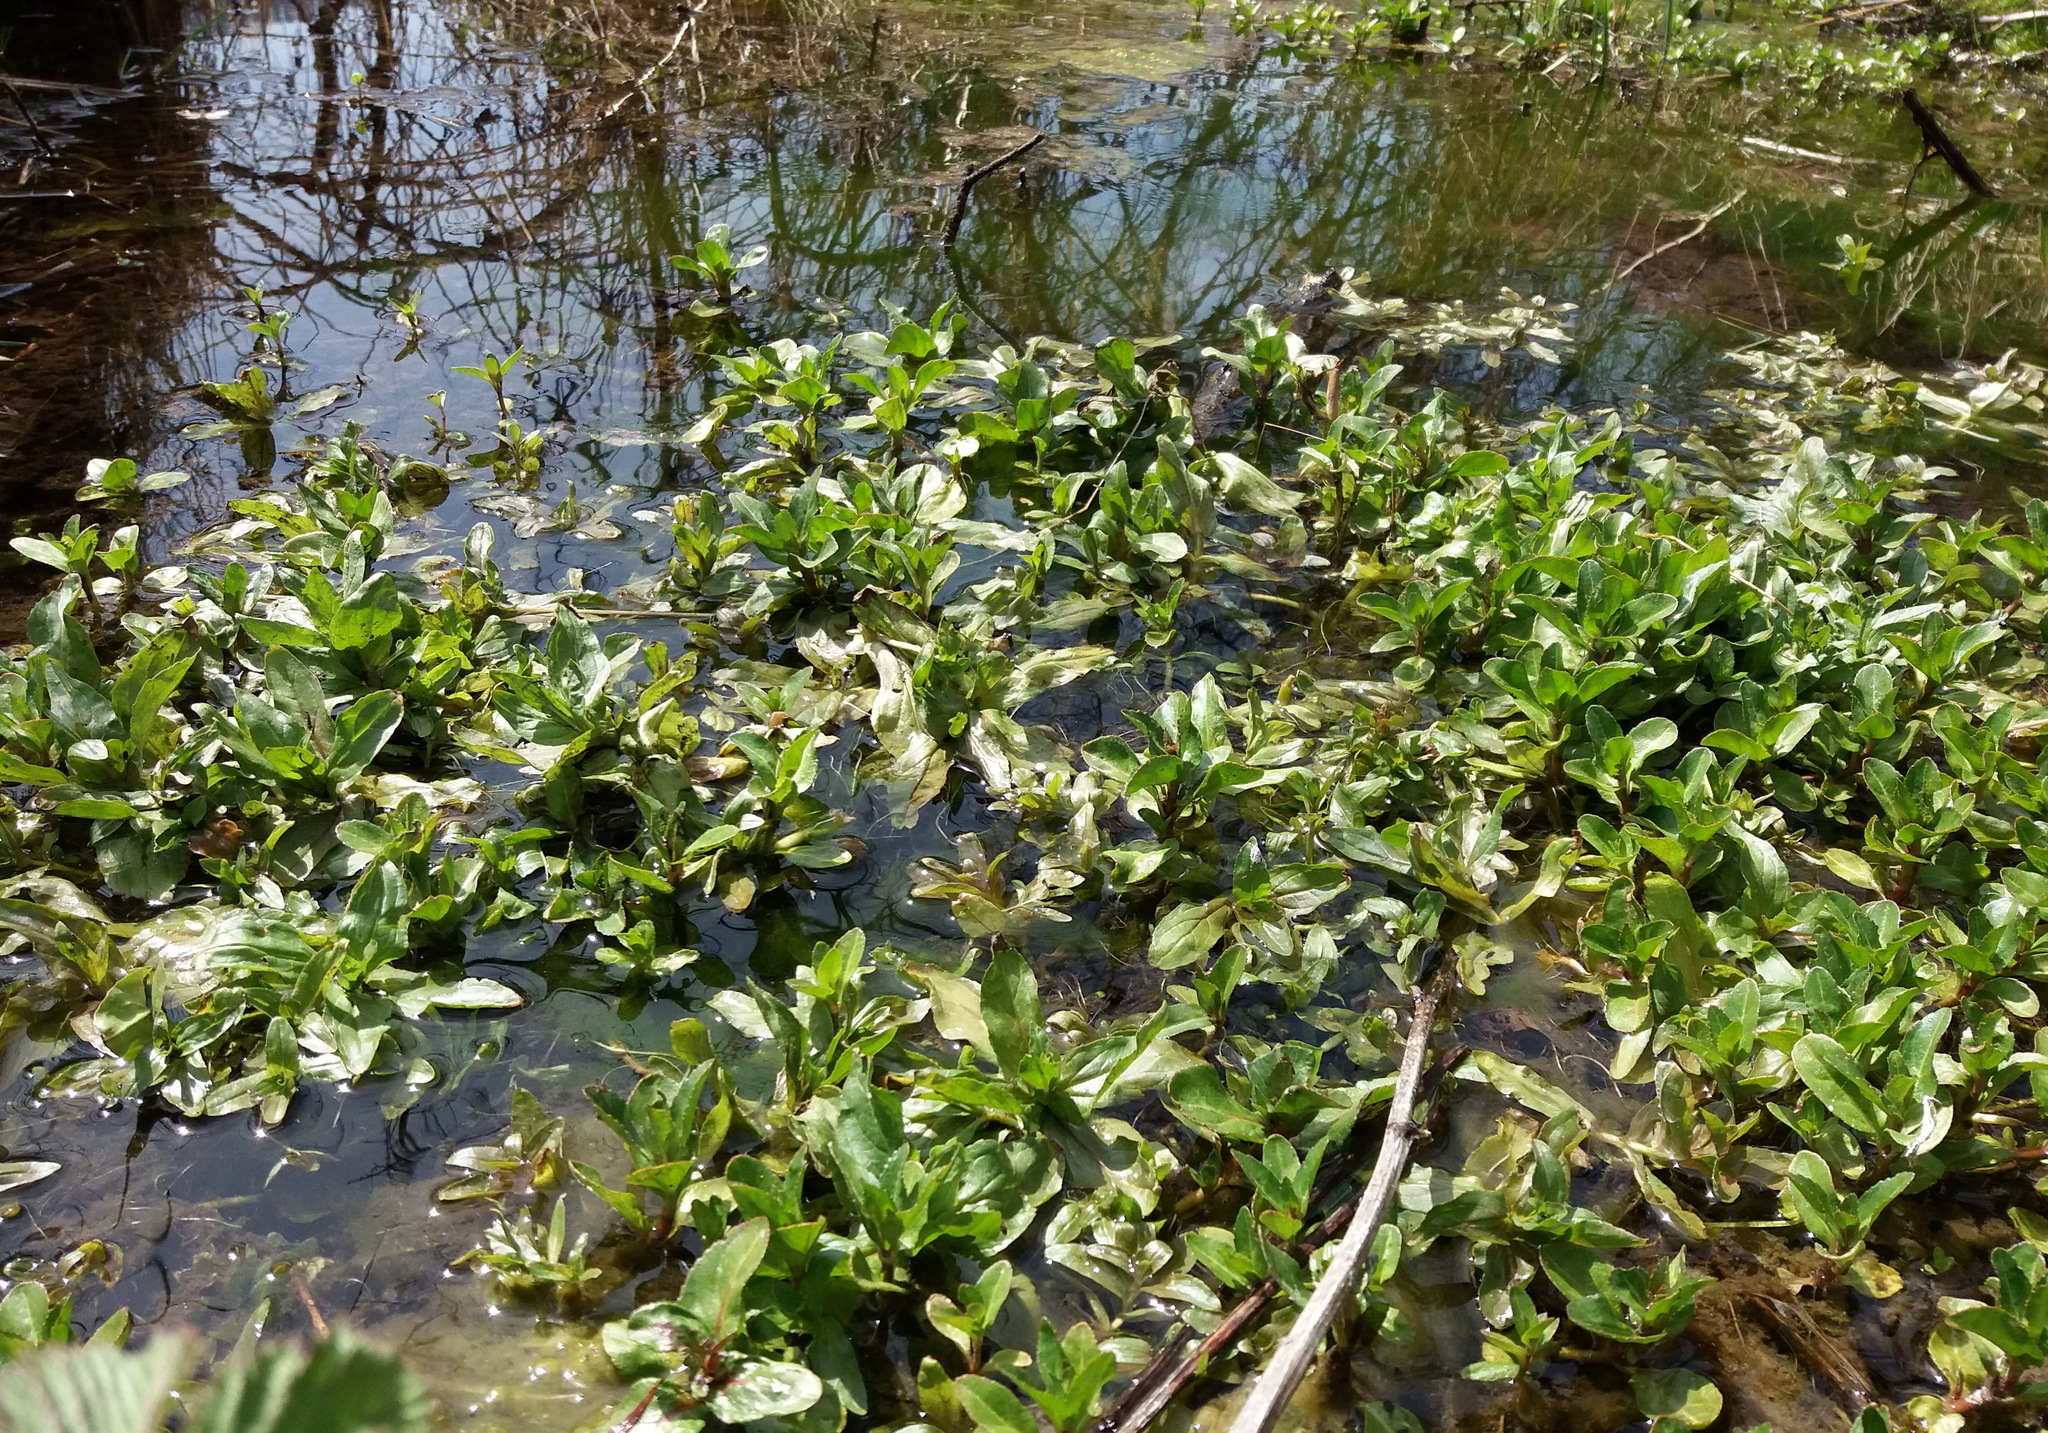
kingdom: Plantae
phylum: Tracheophyta
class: Magnoliopsida
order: Lamiales
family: Plantaginaceae
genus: Veronica
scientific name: Veronica beccabunga
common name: Brooklime
